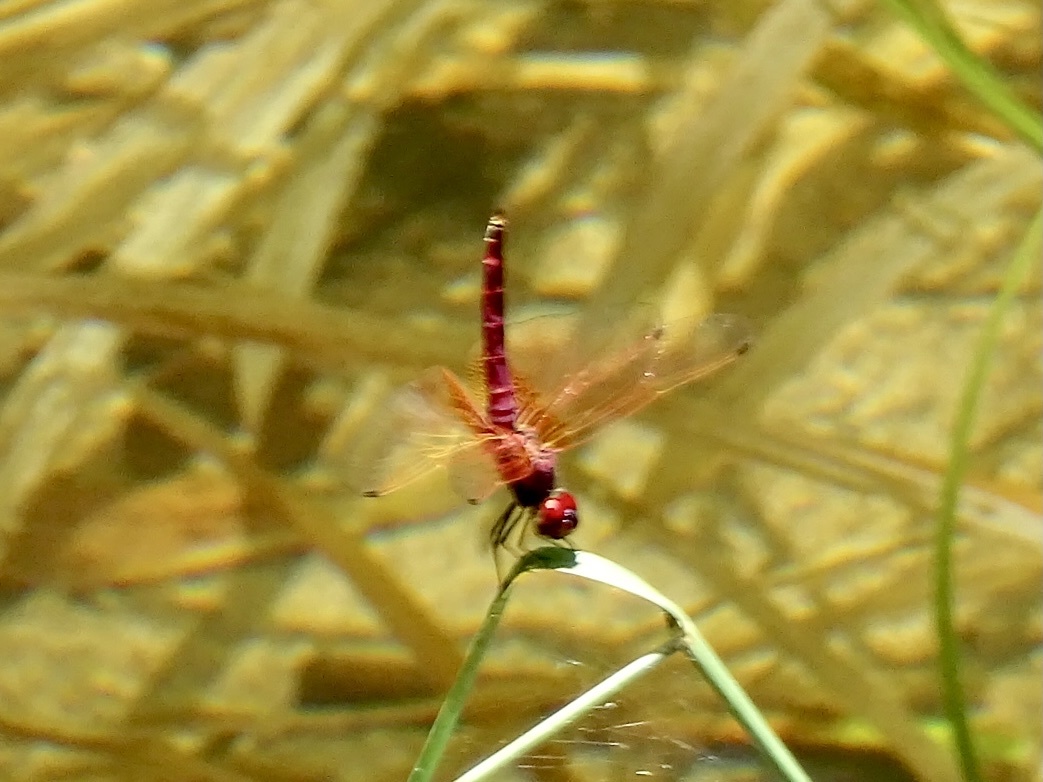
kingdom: Animalia
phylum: Arthropoda
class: Insecta
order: Odonata
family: Libellulidae
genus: Trithemis
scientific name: Trithemis aurora
